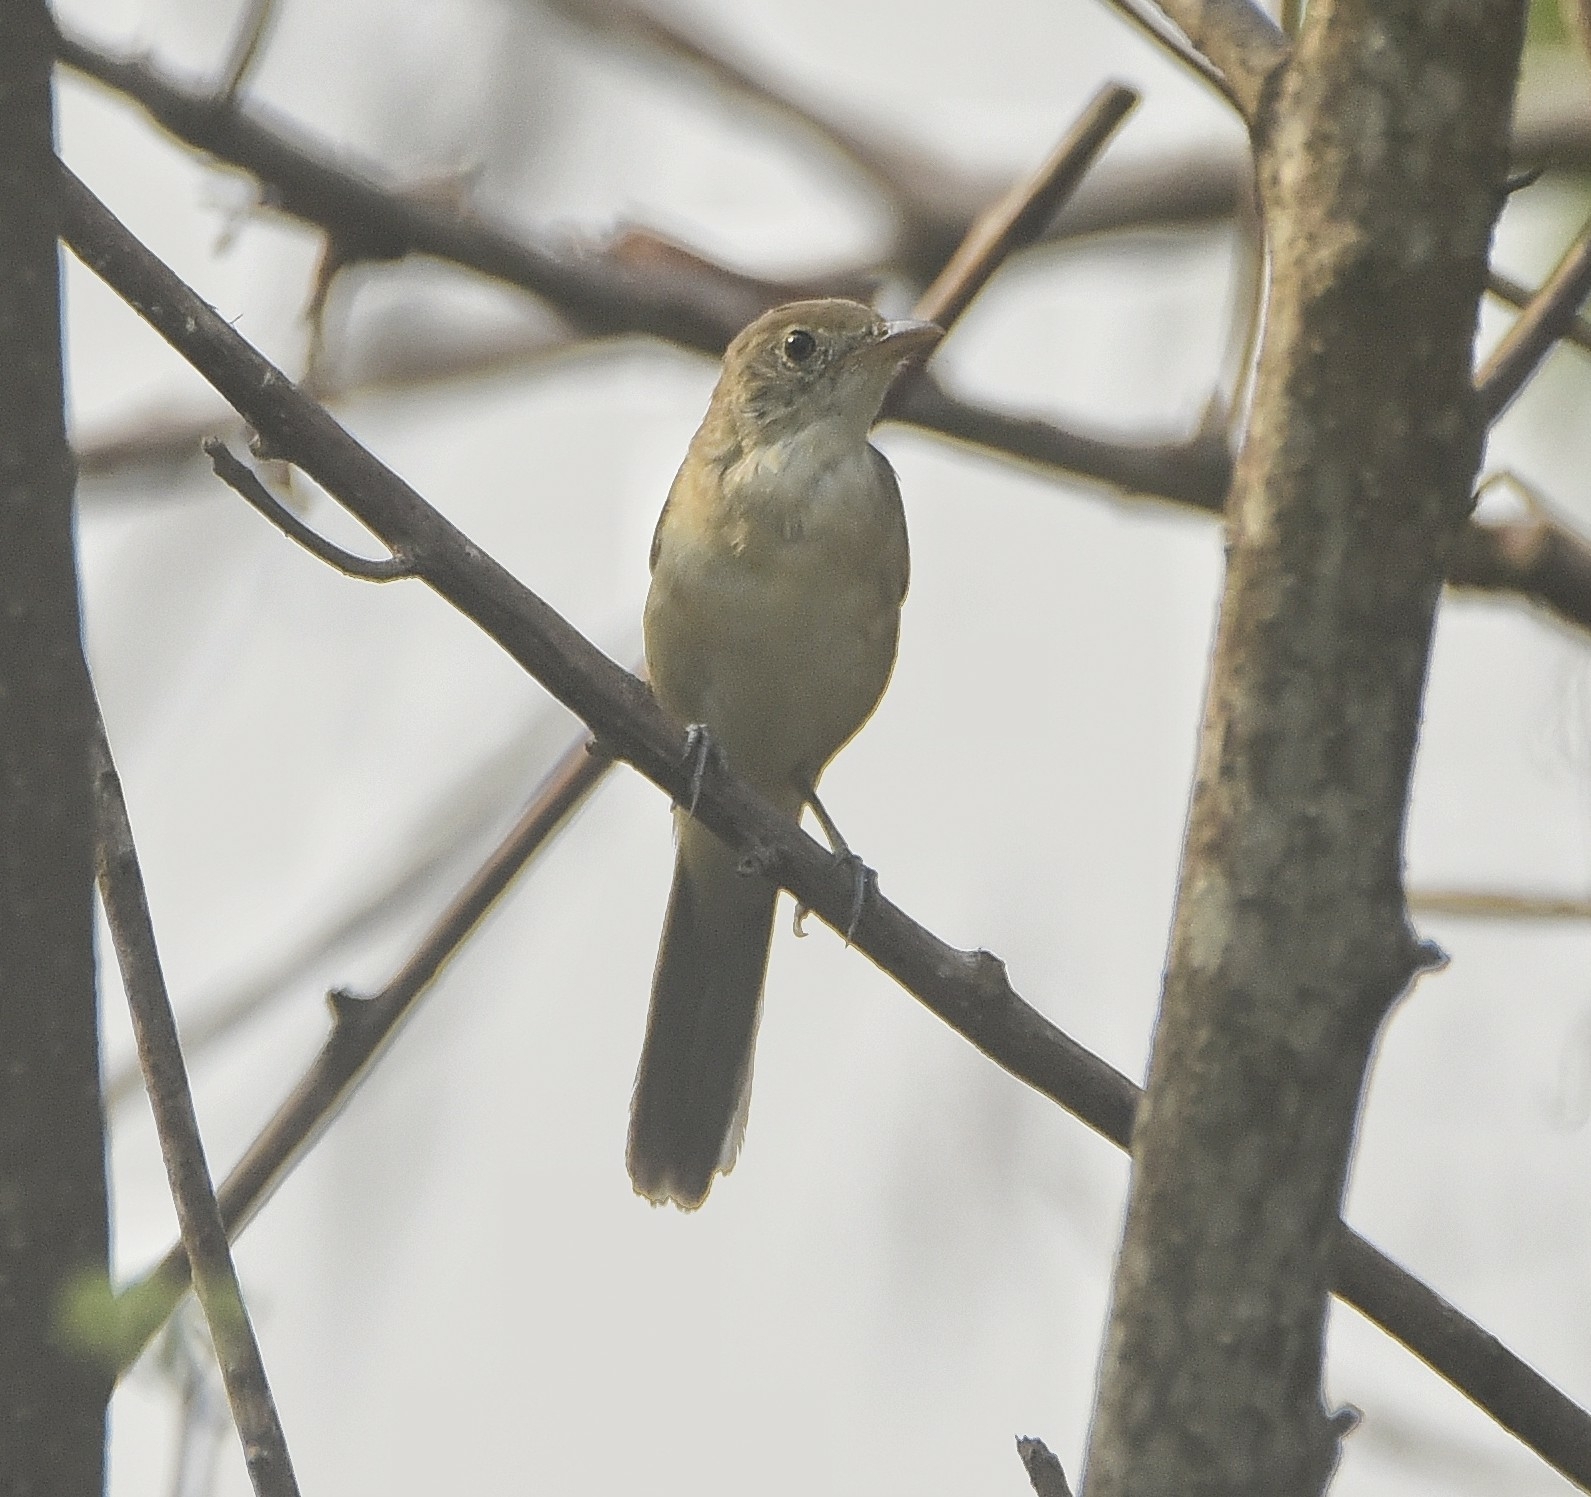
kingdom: Animalia
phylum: Chordata
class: Aves
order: Passeriformes
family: Acrocephalidae
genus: Iduna
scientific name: Iduna aedon
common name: Thick-billed warbler
